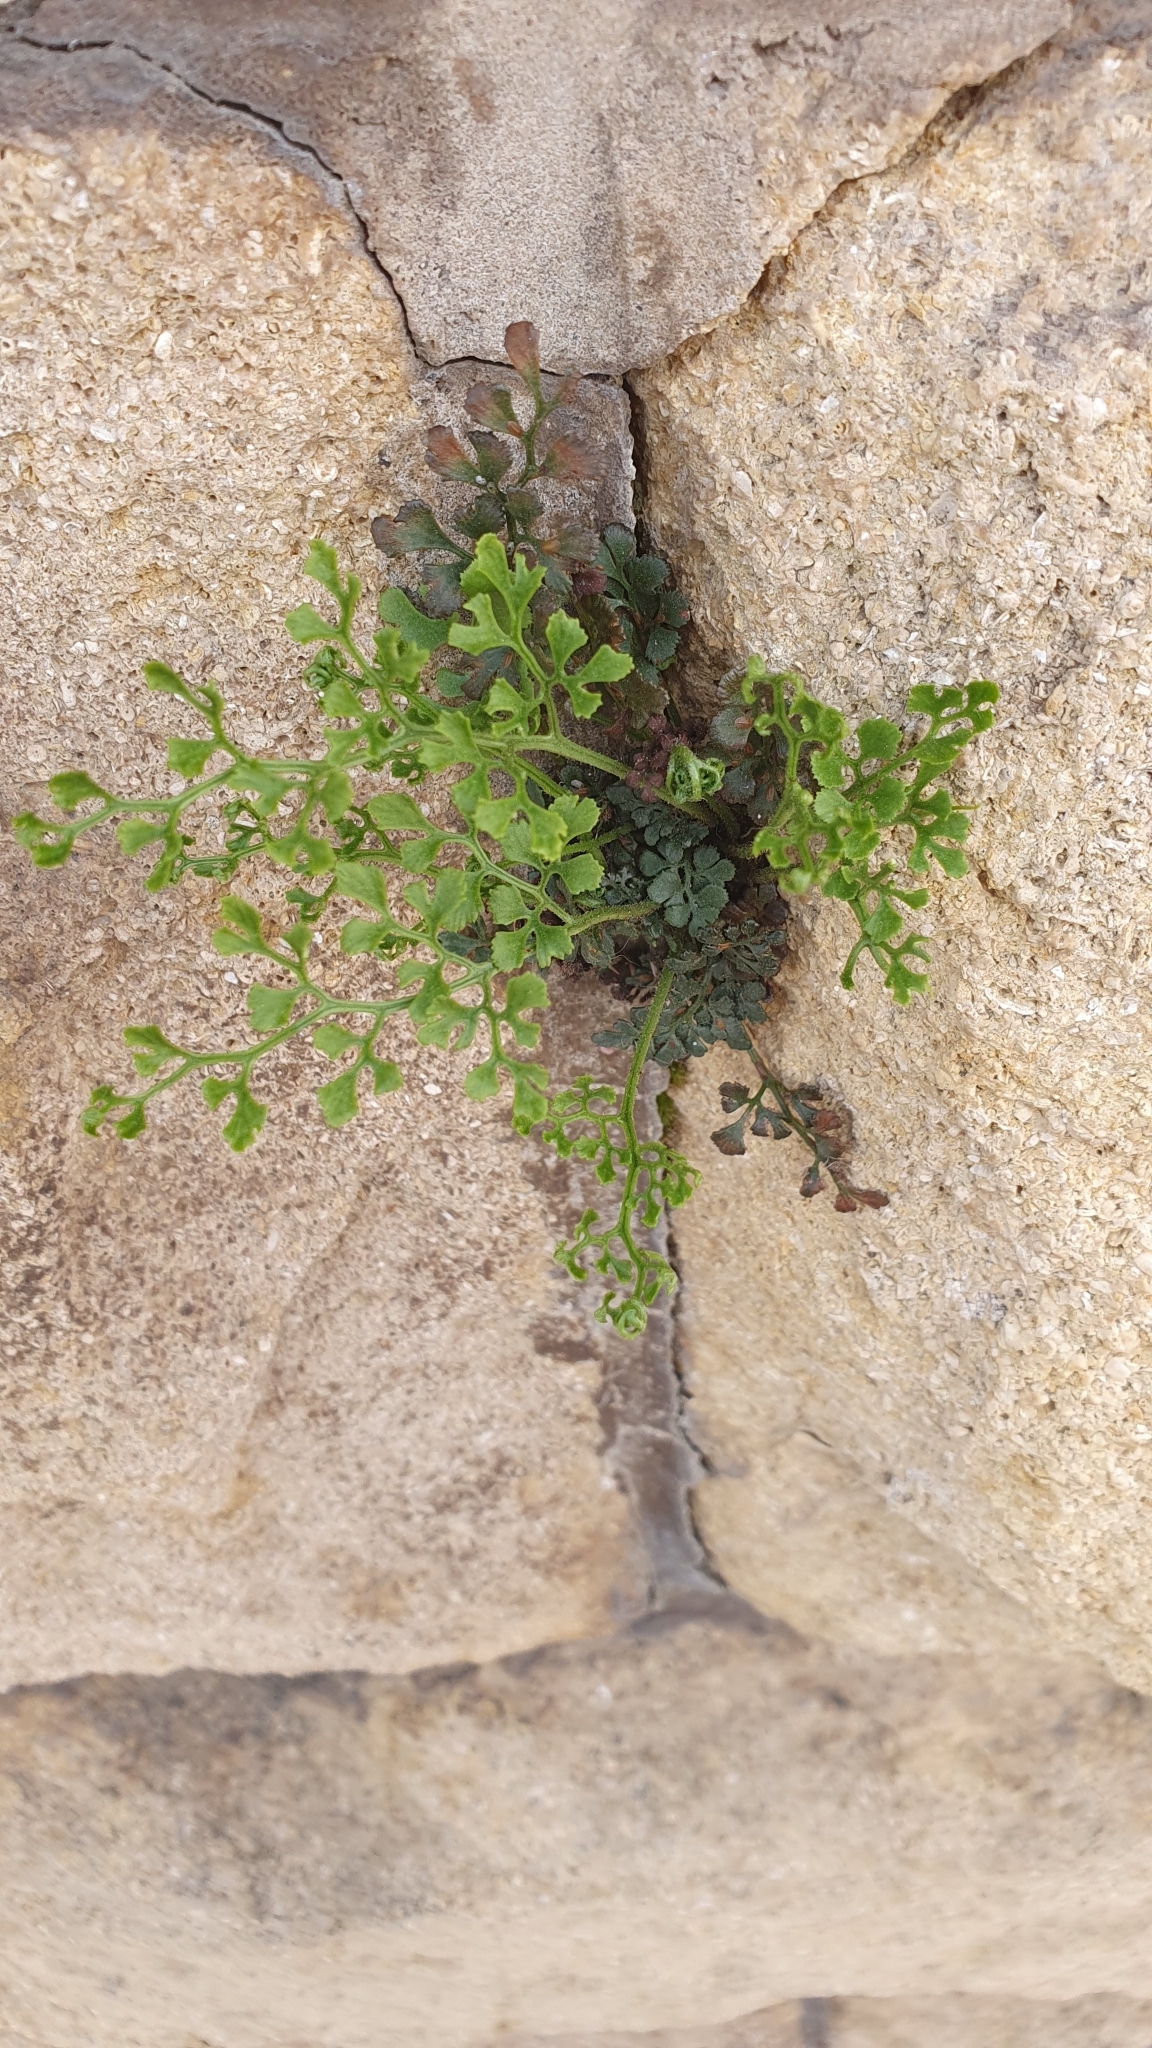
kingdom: Plantae
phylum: Tracheophyta
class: Polypodiopsida
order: Polypodiales
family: Aspleniaceae
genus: Asplenium
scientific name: Asplenium ruta-muraria
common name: Wall-rue
